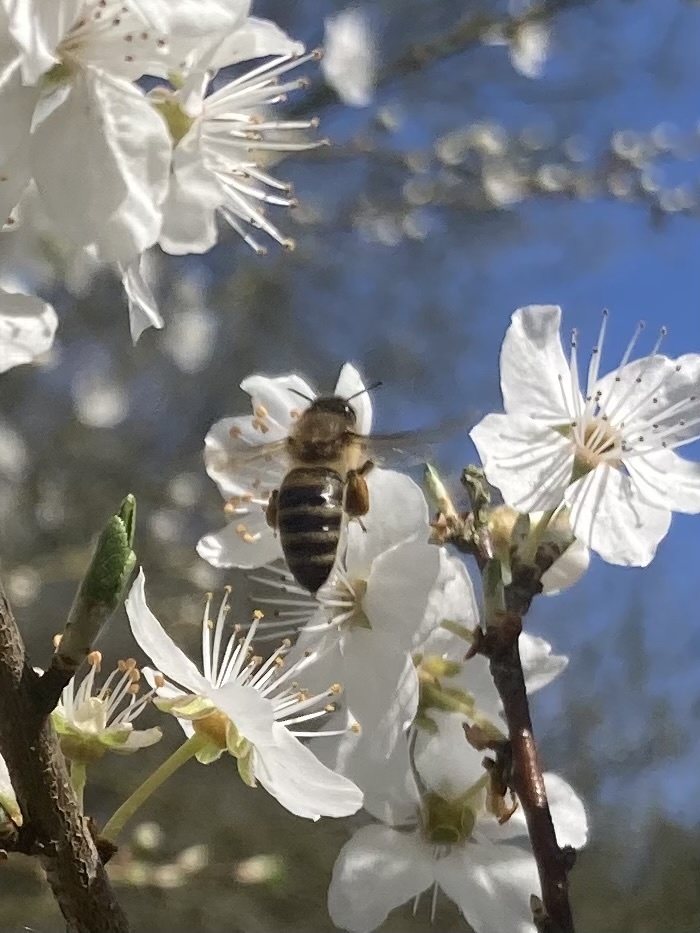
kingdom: Animalia
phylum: Arthropoda
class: Insecta
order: Hymenoptera
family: Apidae
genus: Apis
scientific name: Apis mellifera
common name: Honey bee
